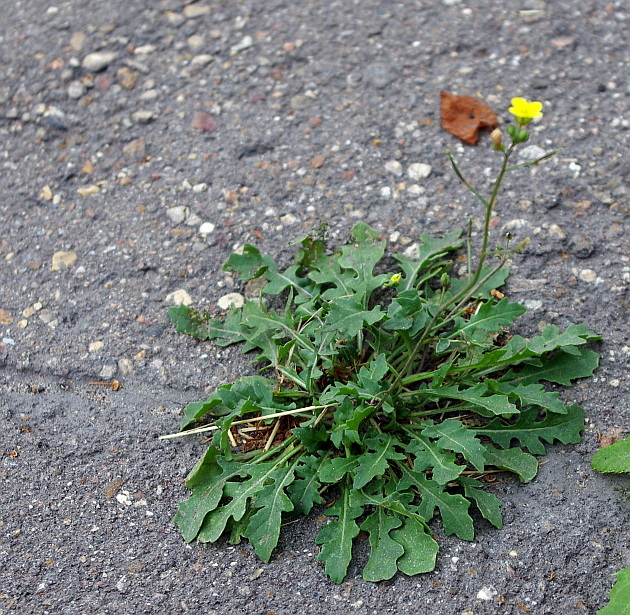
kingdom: Plantae
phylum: Tracheophyta
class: Magnoliopsida
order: Brassicales
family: Brassicaceae
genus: Diplotaxis
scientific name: Diplotaxis muralis
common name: Annual wall-rocket
